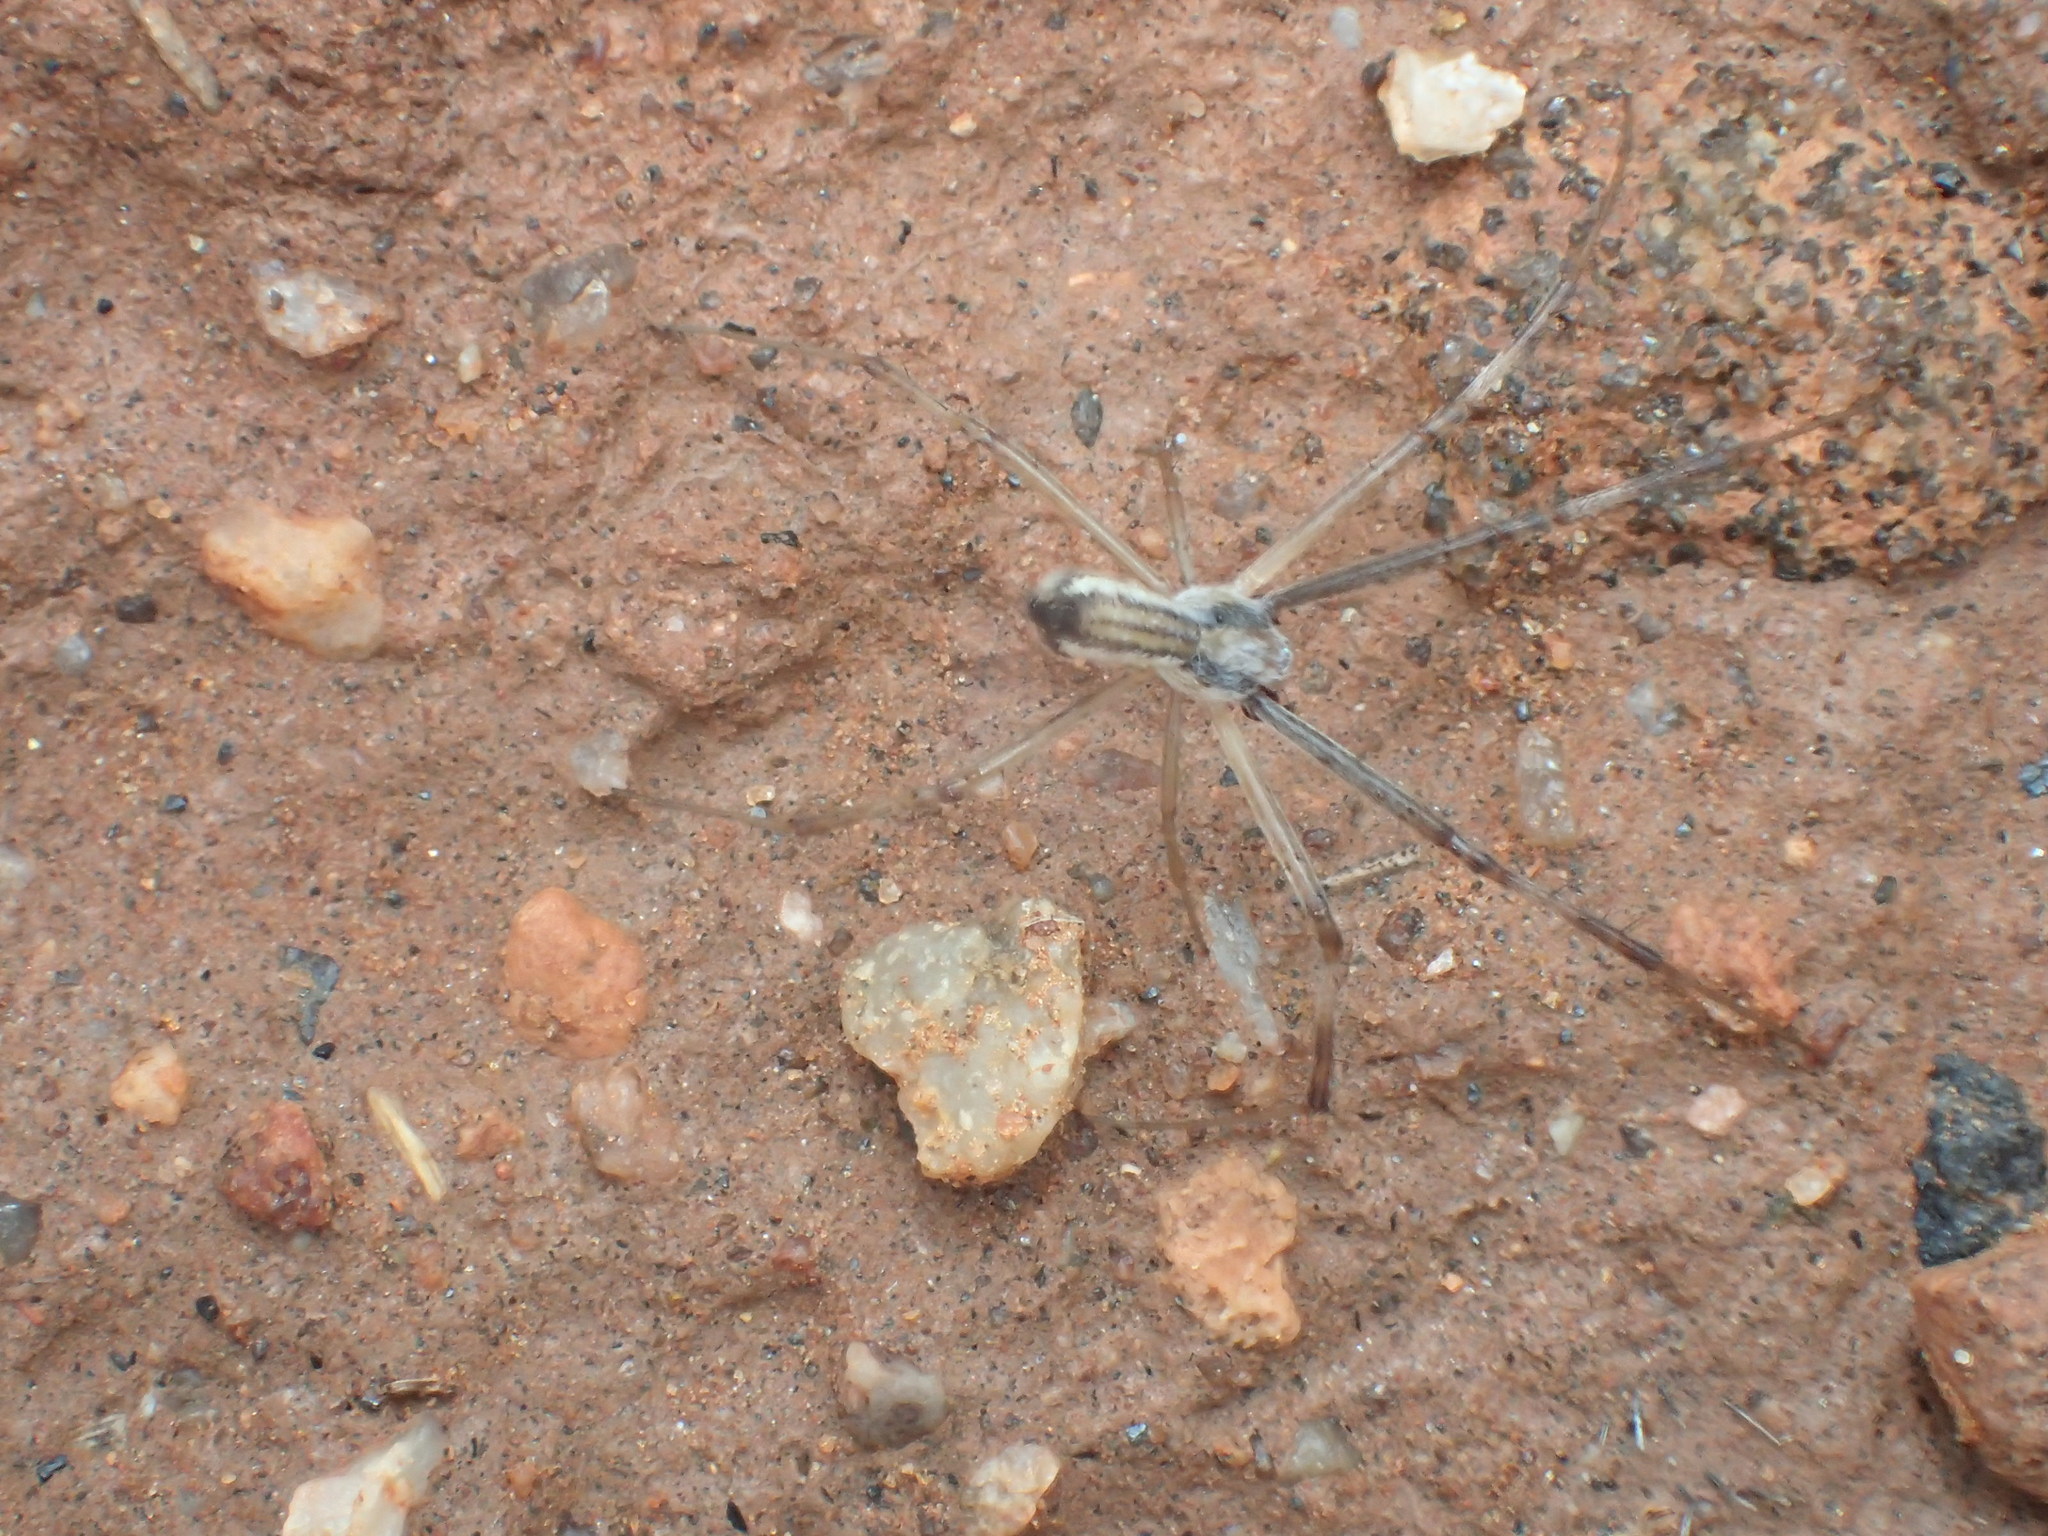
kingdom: Animalia
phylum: Arthropoda
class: Arachnida
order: Araneae
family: Araneidae
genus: Argiope
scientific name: Argiope protensa
